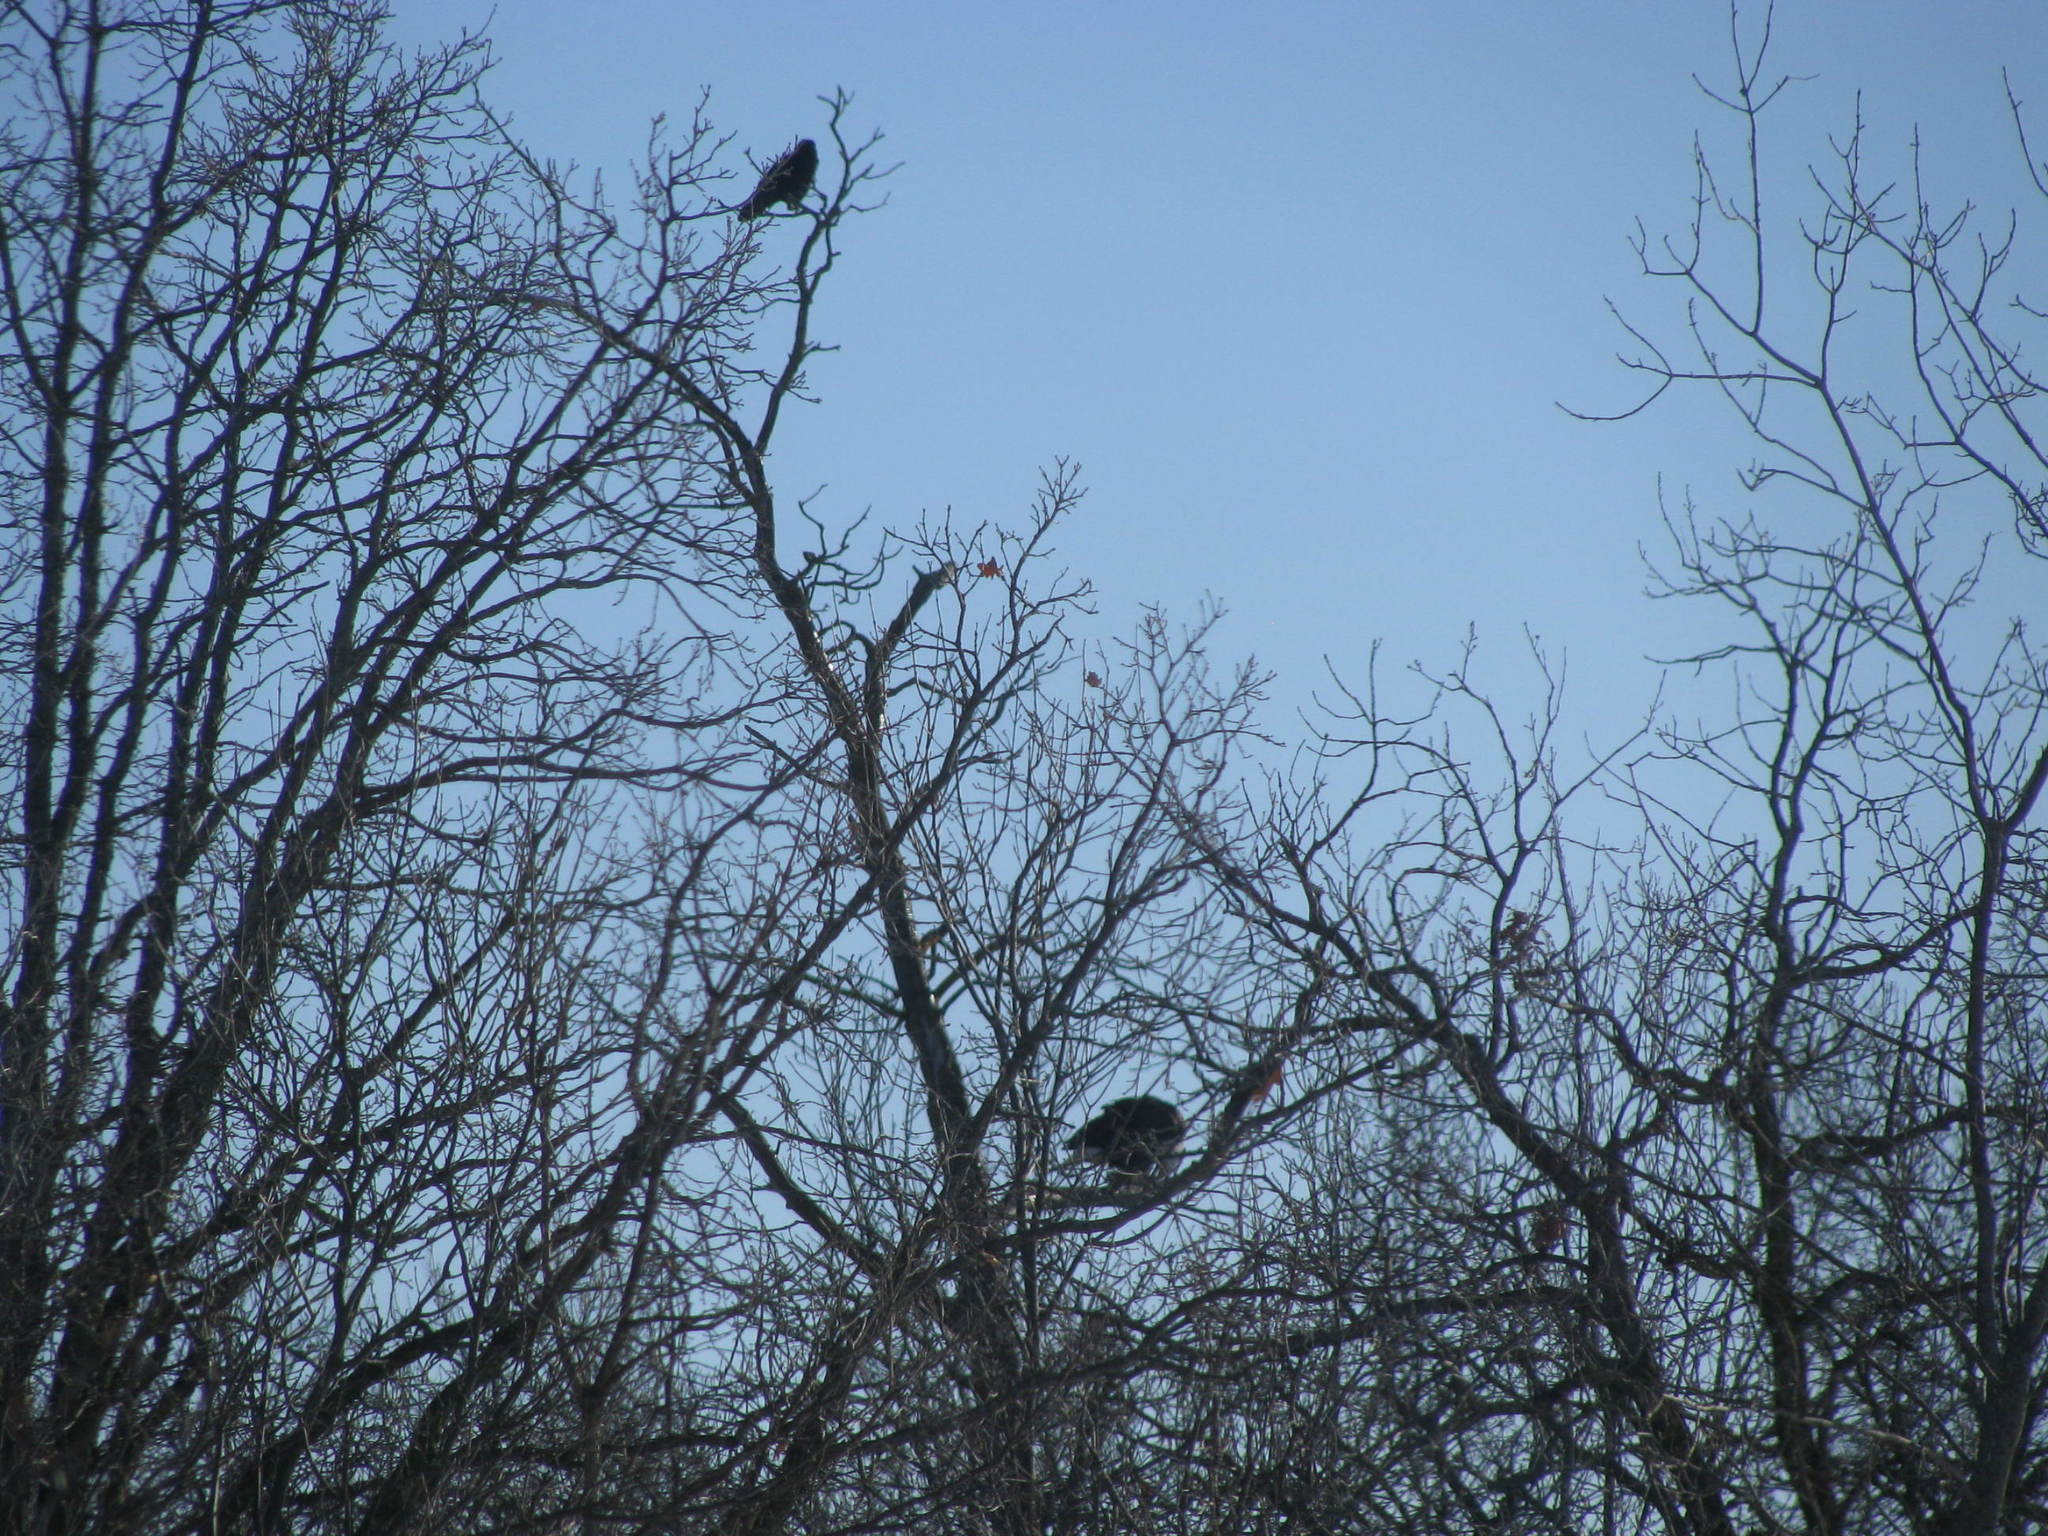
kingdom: Animalia
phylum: Chordata
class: Aves
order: Accipitriformes
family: Accipitridae
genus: Haliaeetus
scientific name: Haliaeetus leucocephalus
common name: Bald eagle
